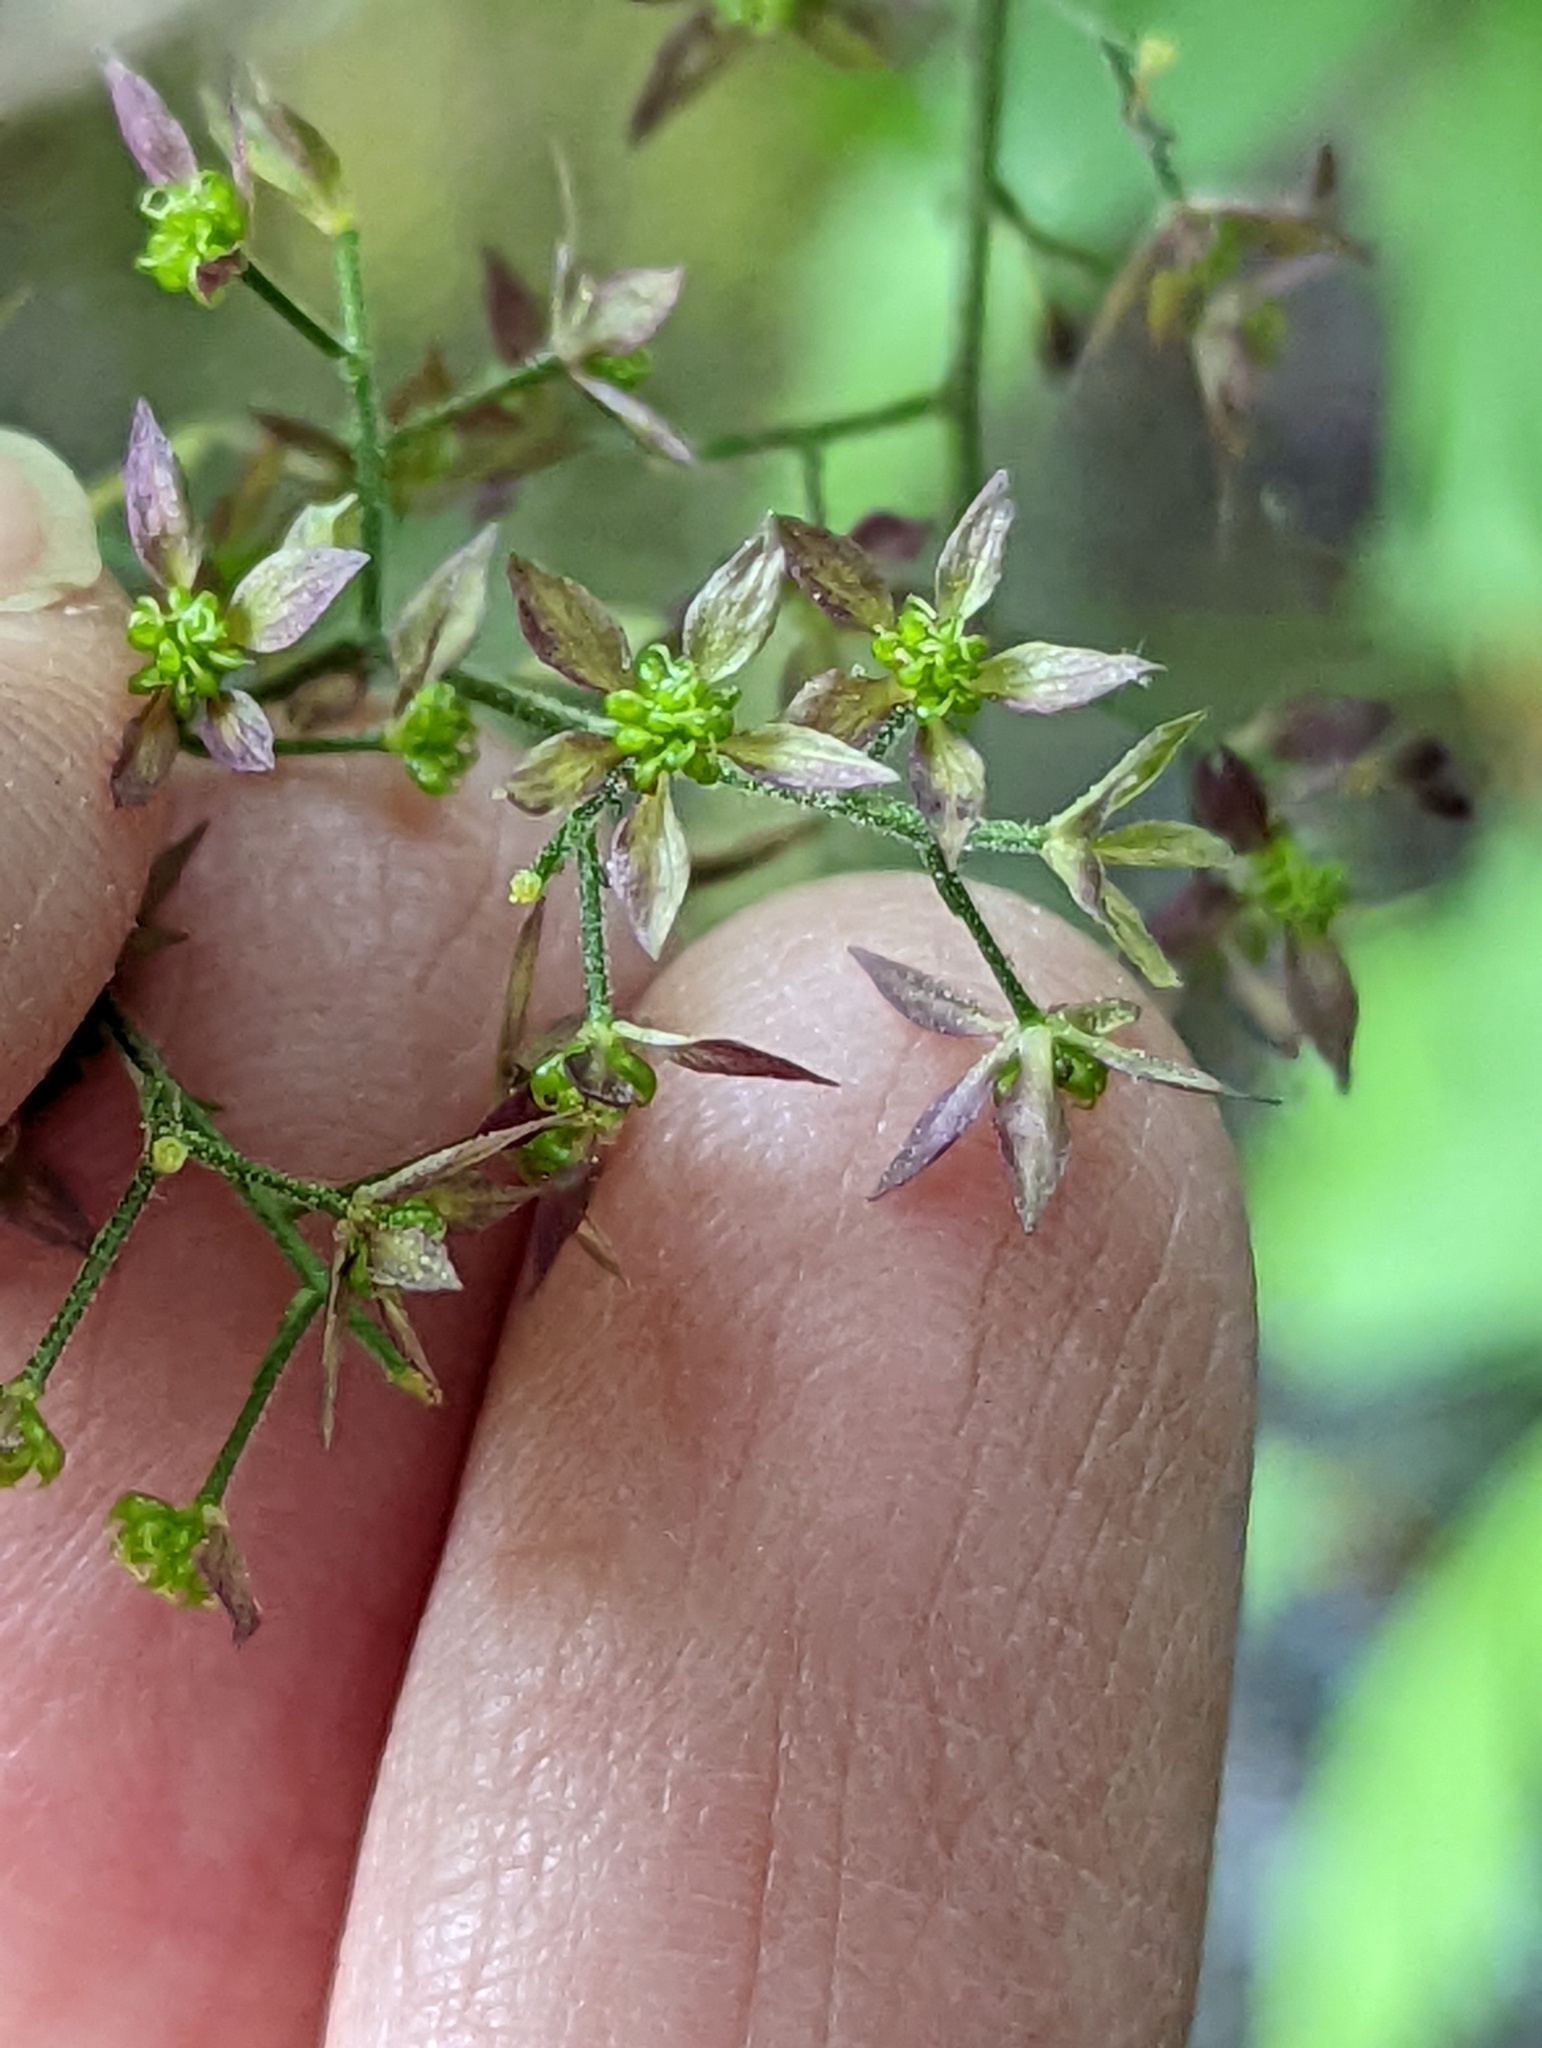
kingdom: Plantae
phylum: Tracheophyta
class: Magnoliopsida
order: Ranunculales
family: Ranunculaceae
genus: Xanthorhiza
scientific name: Xanthorhiza simplicissima
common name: Yellowroot
